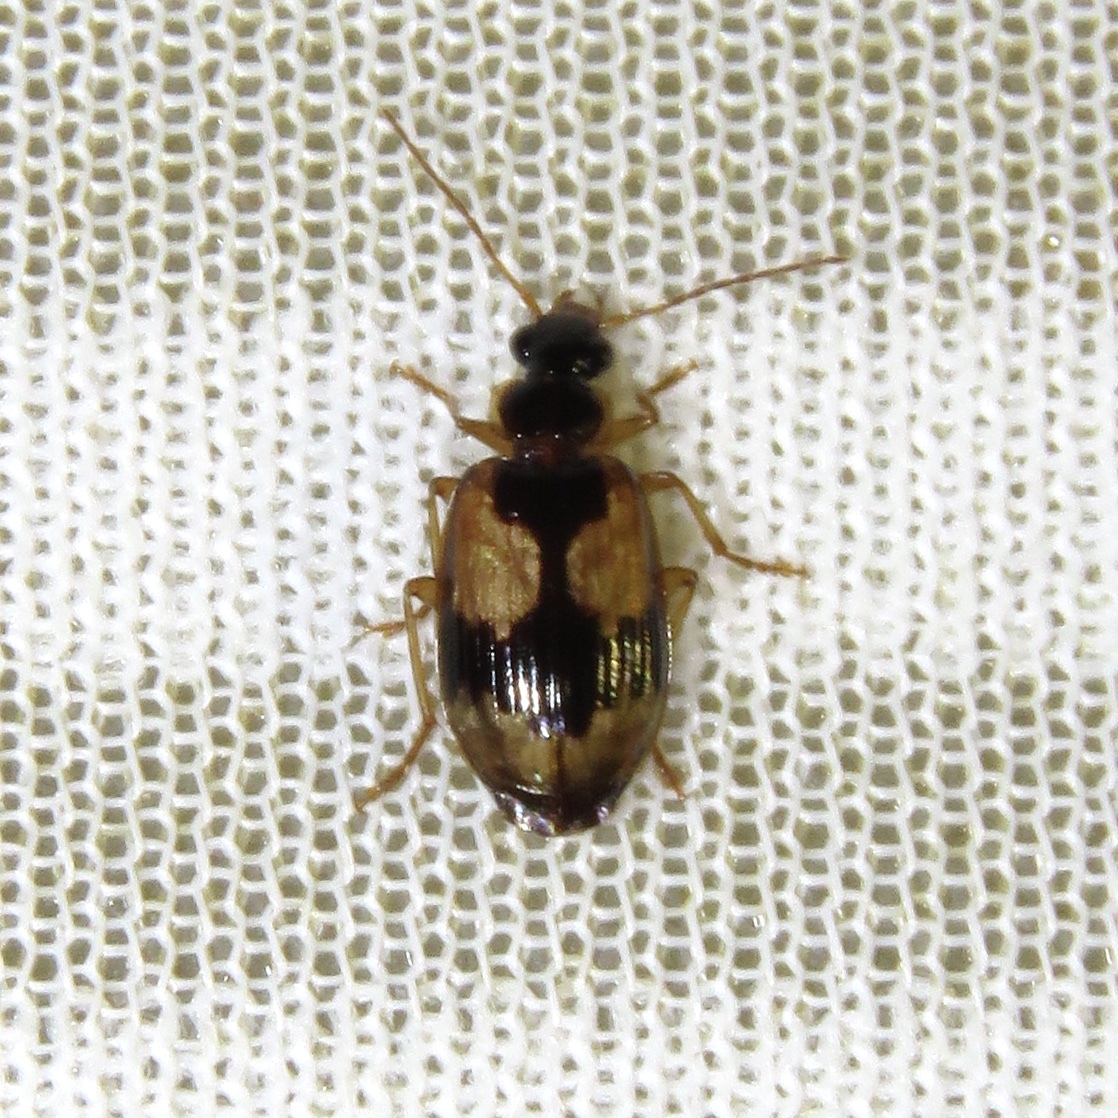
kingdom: Animalia
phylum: Arthropoda
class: Insecta
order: Coleoptera
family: Carabidae
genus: Lebia
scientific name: Lebia fuscata
